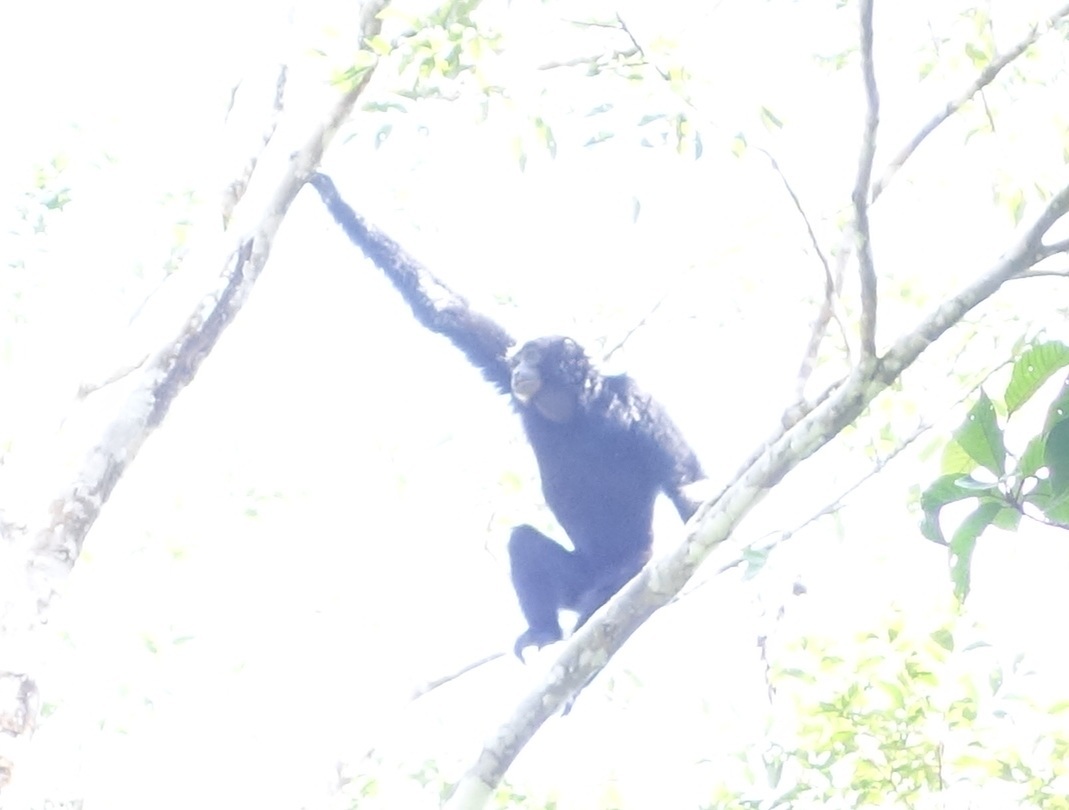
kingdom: Animalia
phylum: Chordata
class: Mammalia
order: Primates
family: Hylobatidae
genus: Symphalangus
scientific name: Symphalangus syndactylus
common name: Siamang
